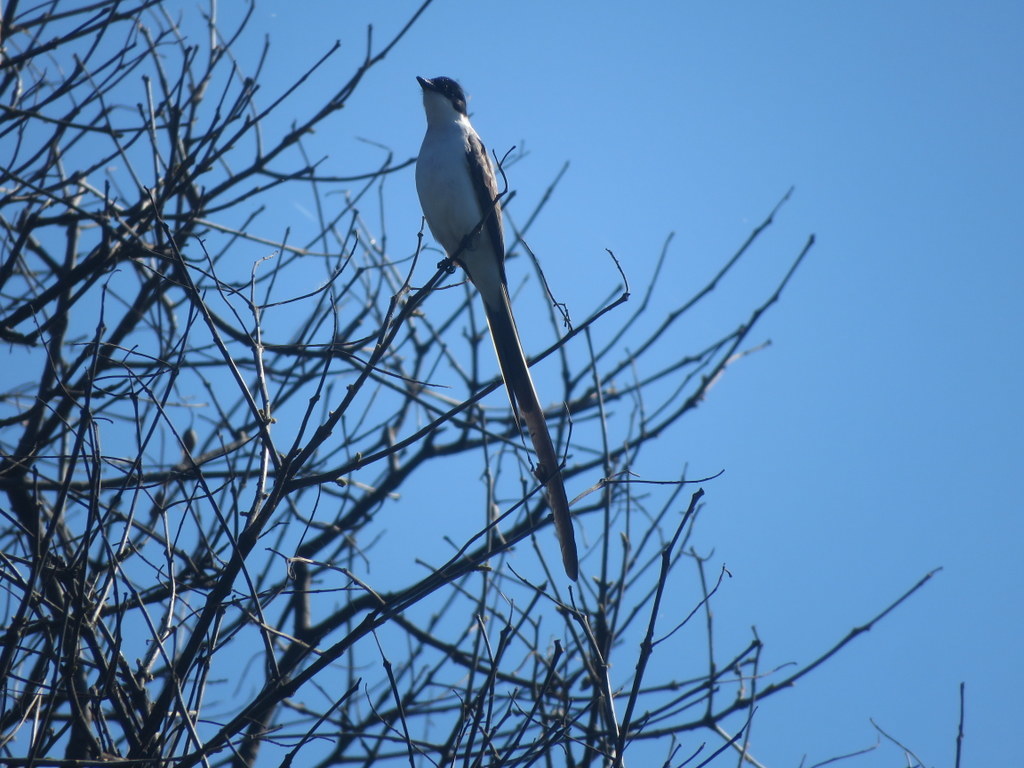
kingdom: Animalia
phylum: Chordata
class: Aves
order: Passeriformes
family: Tyrannidae
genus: Tyrannus
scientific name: Tyrannus savana
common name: Fork-tailed flycatcher
